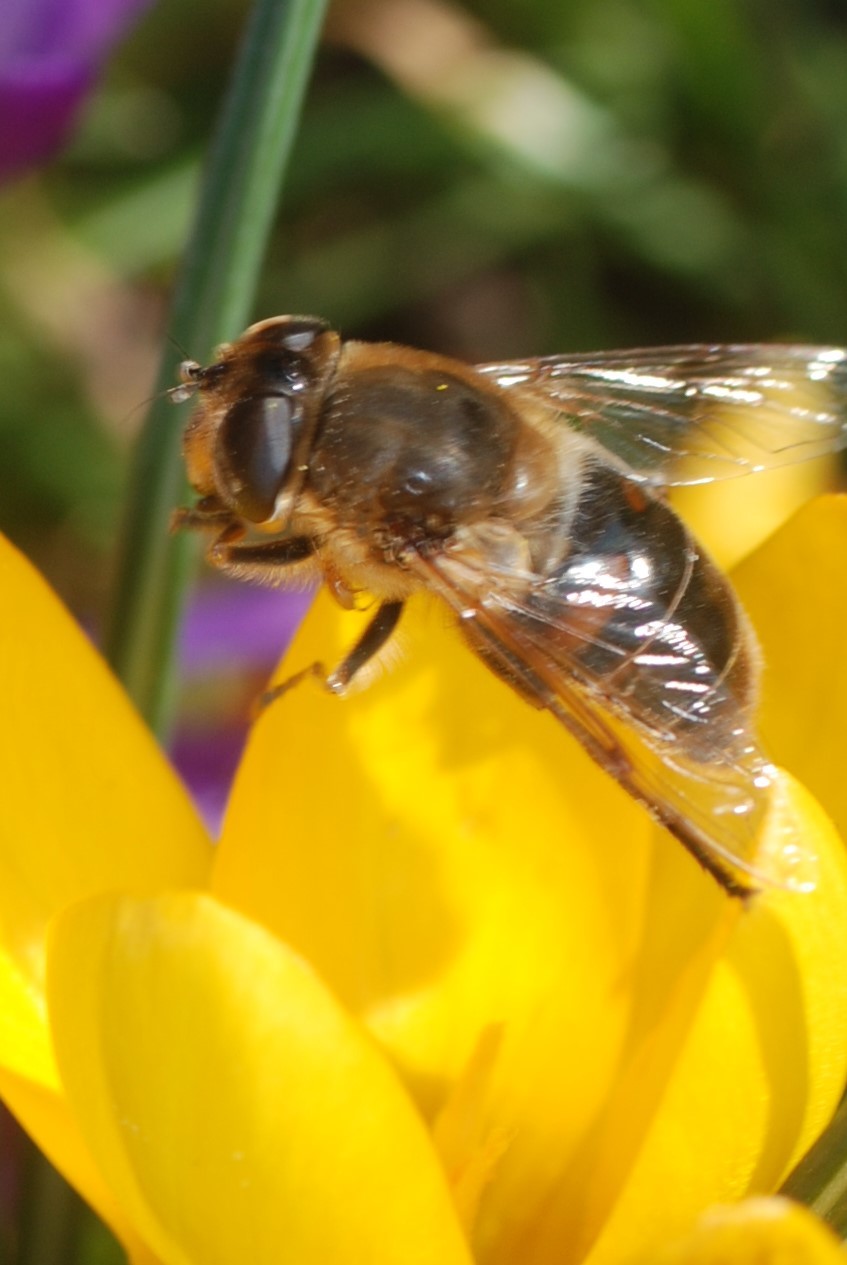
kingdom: Animalia
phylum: Arthropoda
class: Insecta
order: Diptera
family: Syrphidae
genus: Eristalis
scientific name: Eristalis tenax
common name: Drone fly
